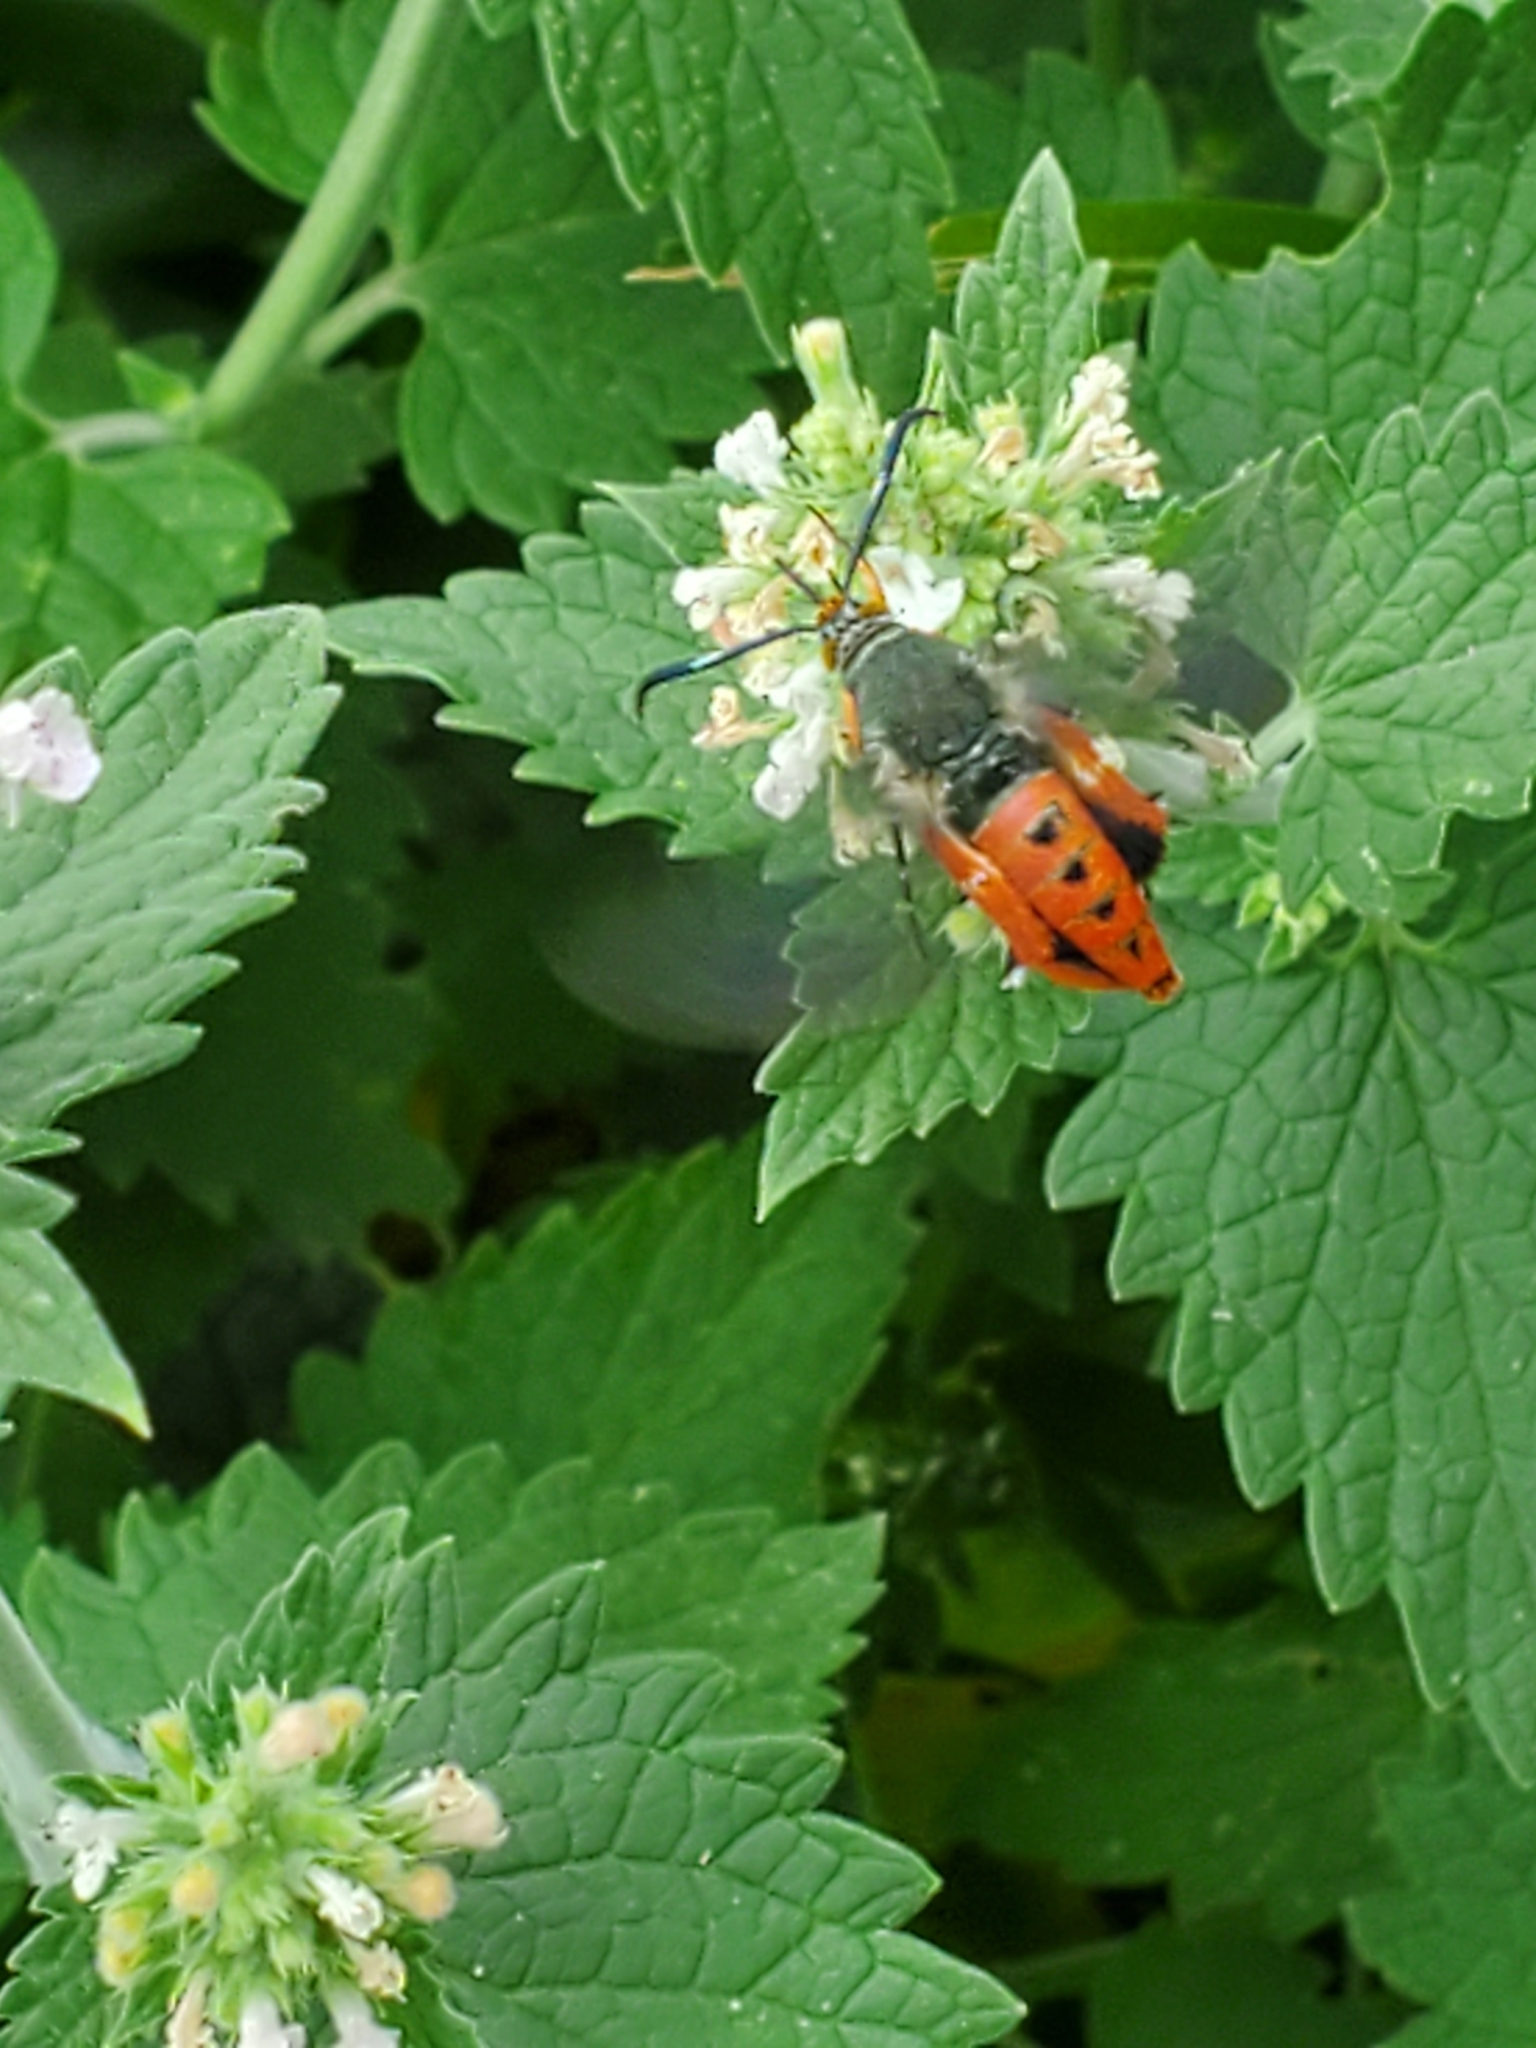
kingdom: Animalia
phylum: Arthropoda
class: Insecta
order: Lepidoptera
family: Sesiidae
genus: Eichlinia
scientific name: Eichlinia cucurbitae
